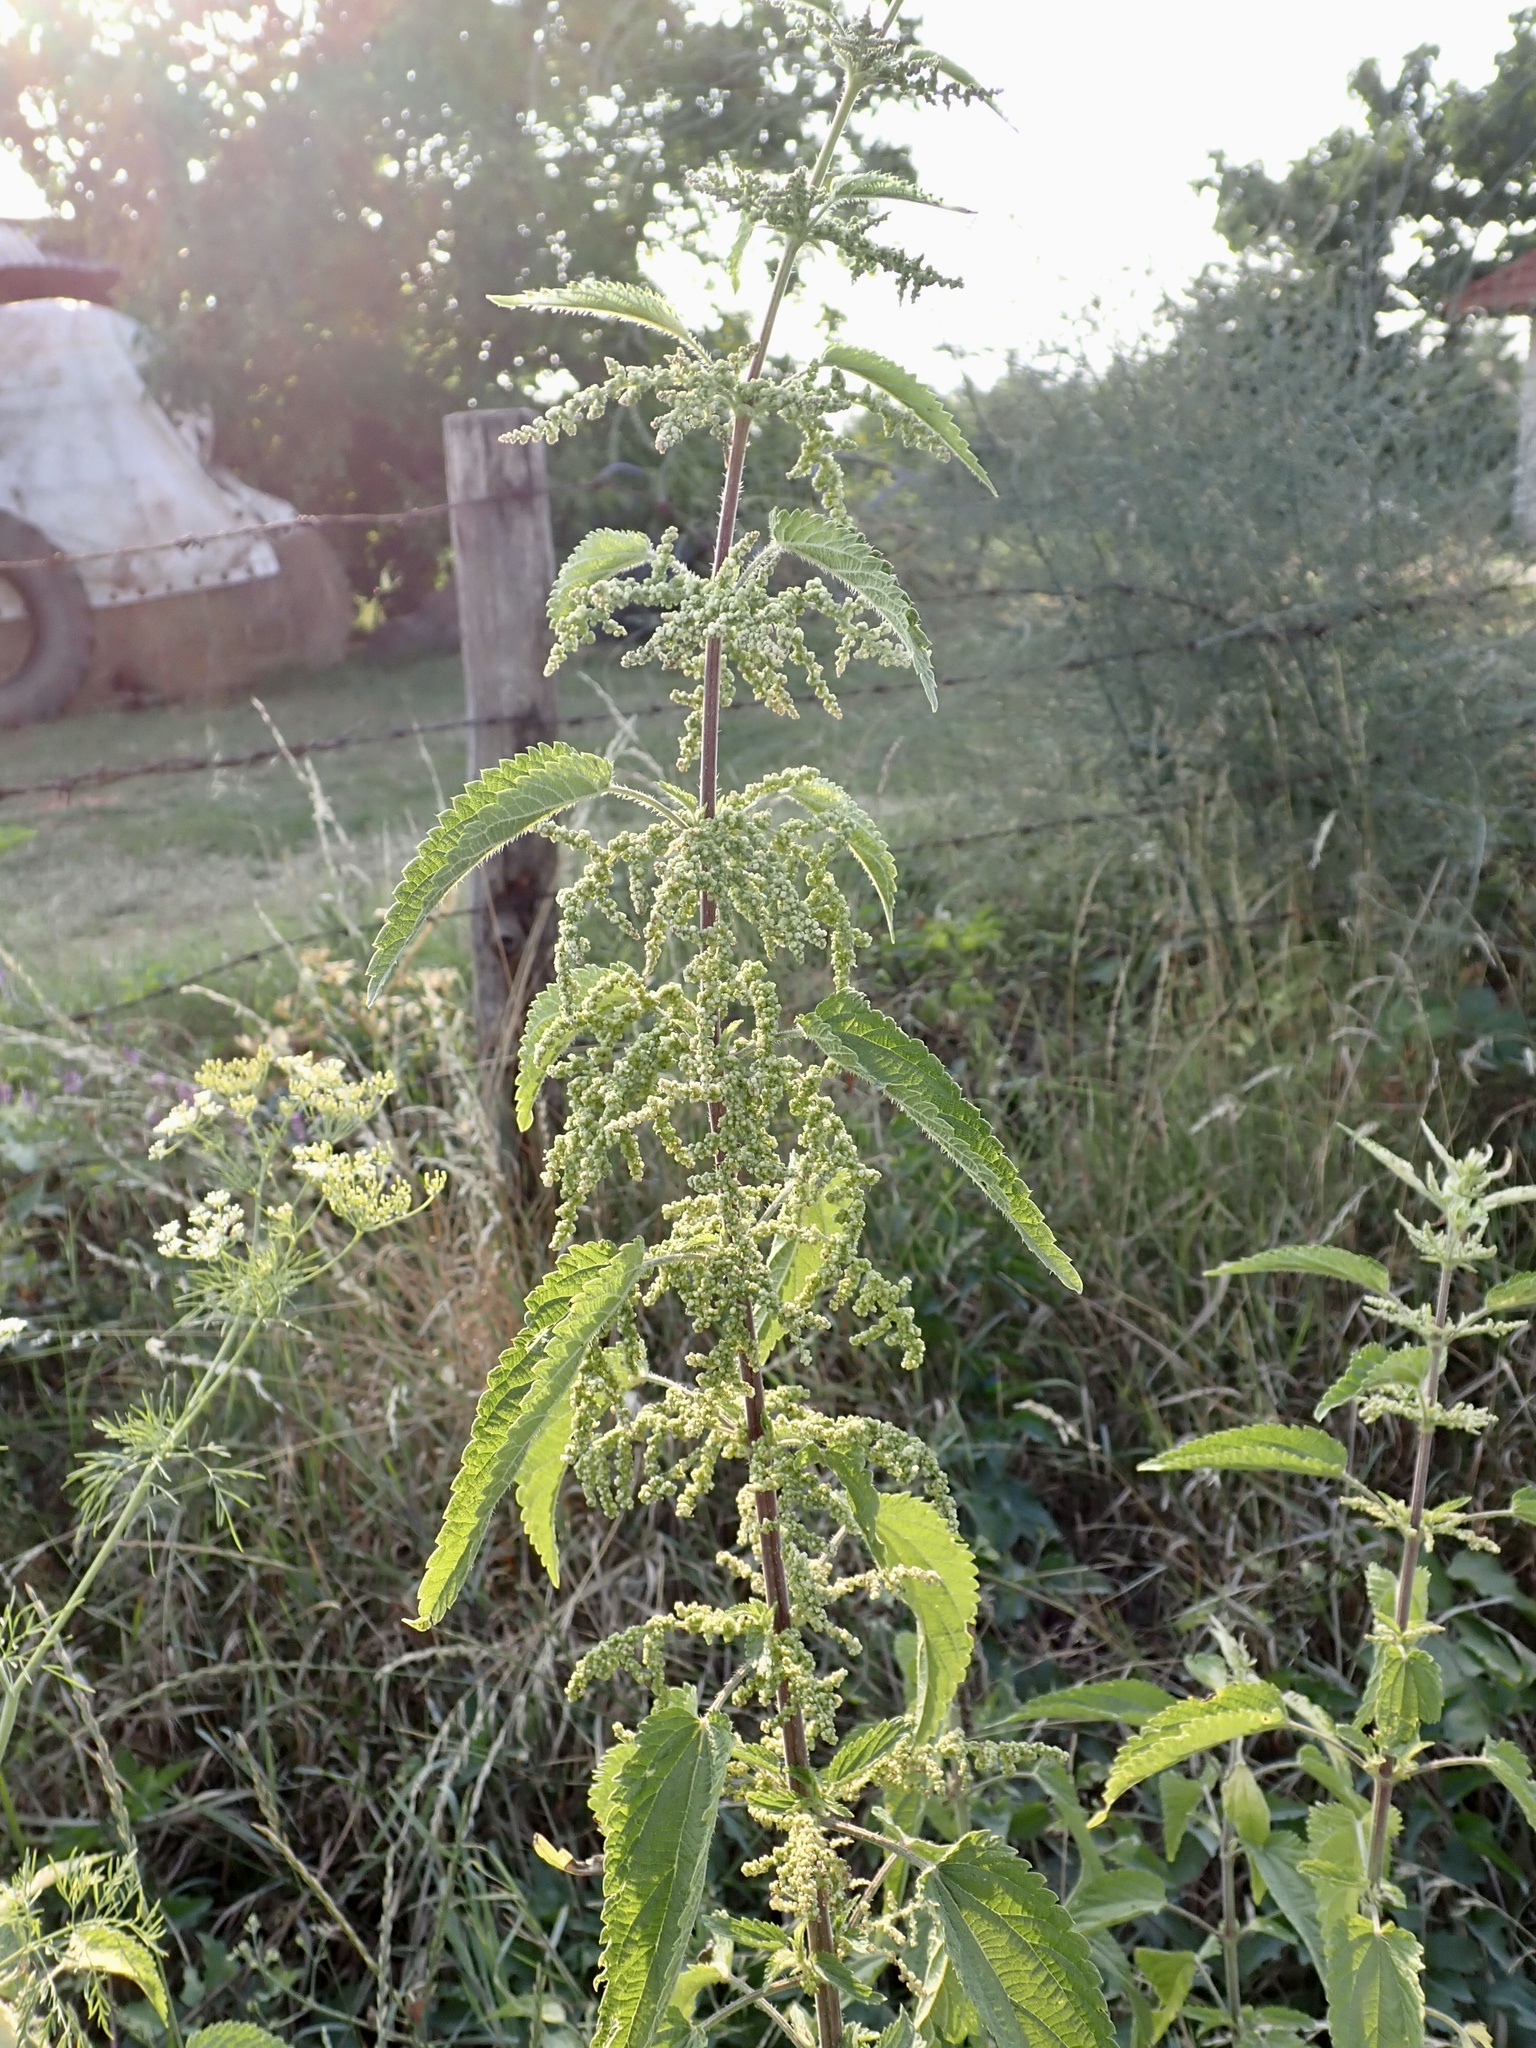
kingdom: Plantae
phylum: Tracheophyta
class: Magnoliopsida
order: Rosales
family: Urticaceae
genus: Urtica
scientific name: Urtica dioica
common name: Common nettle
